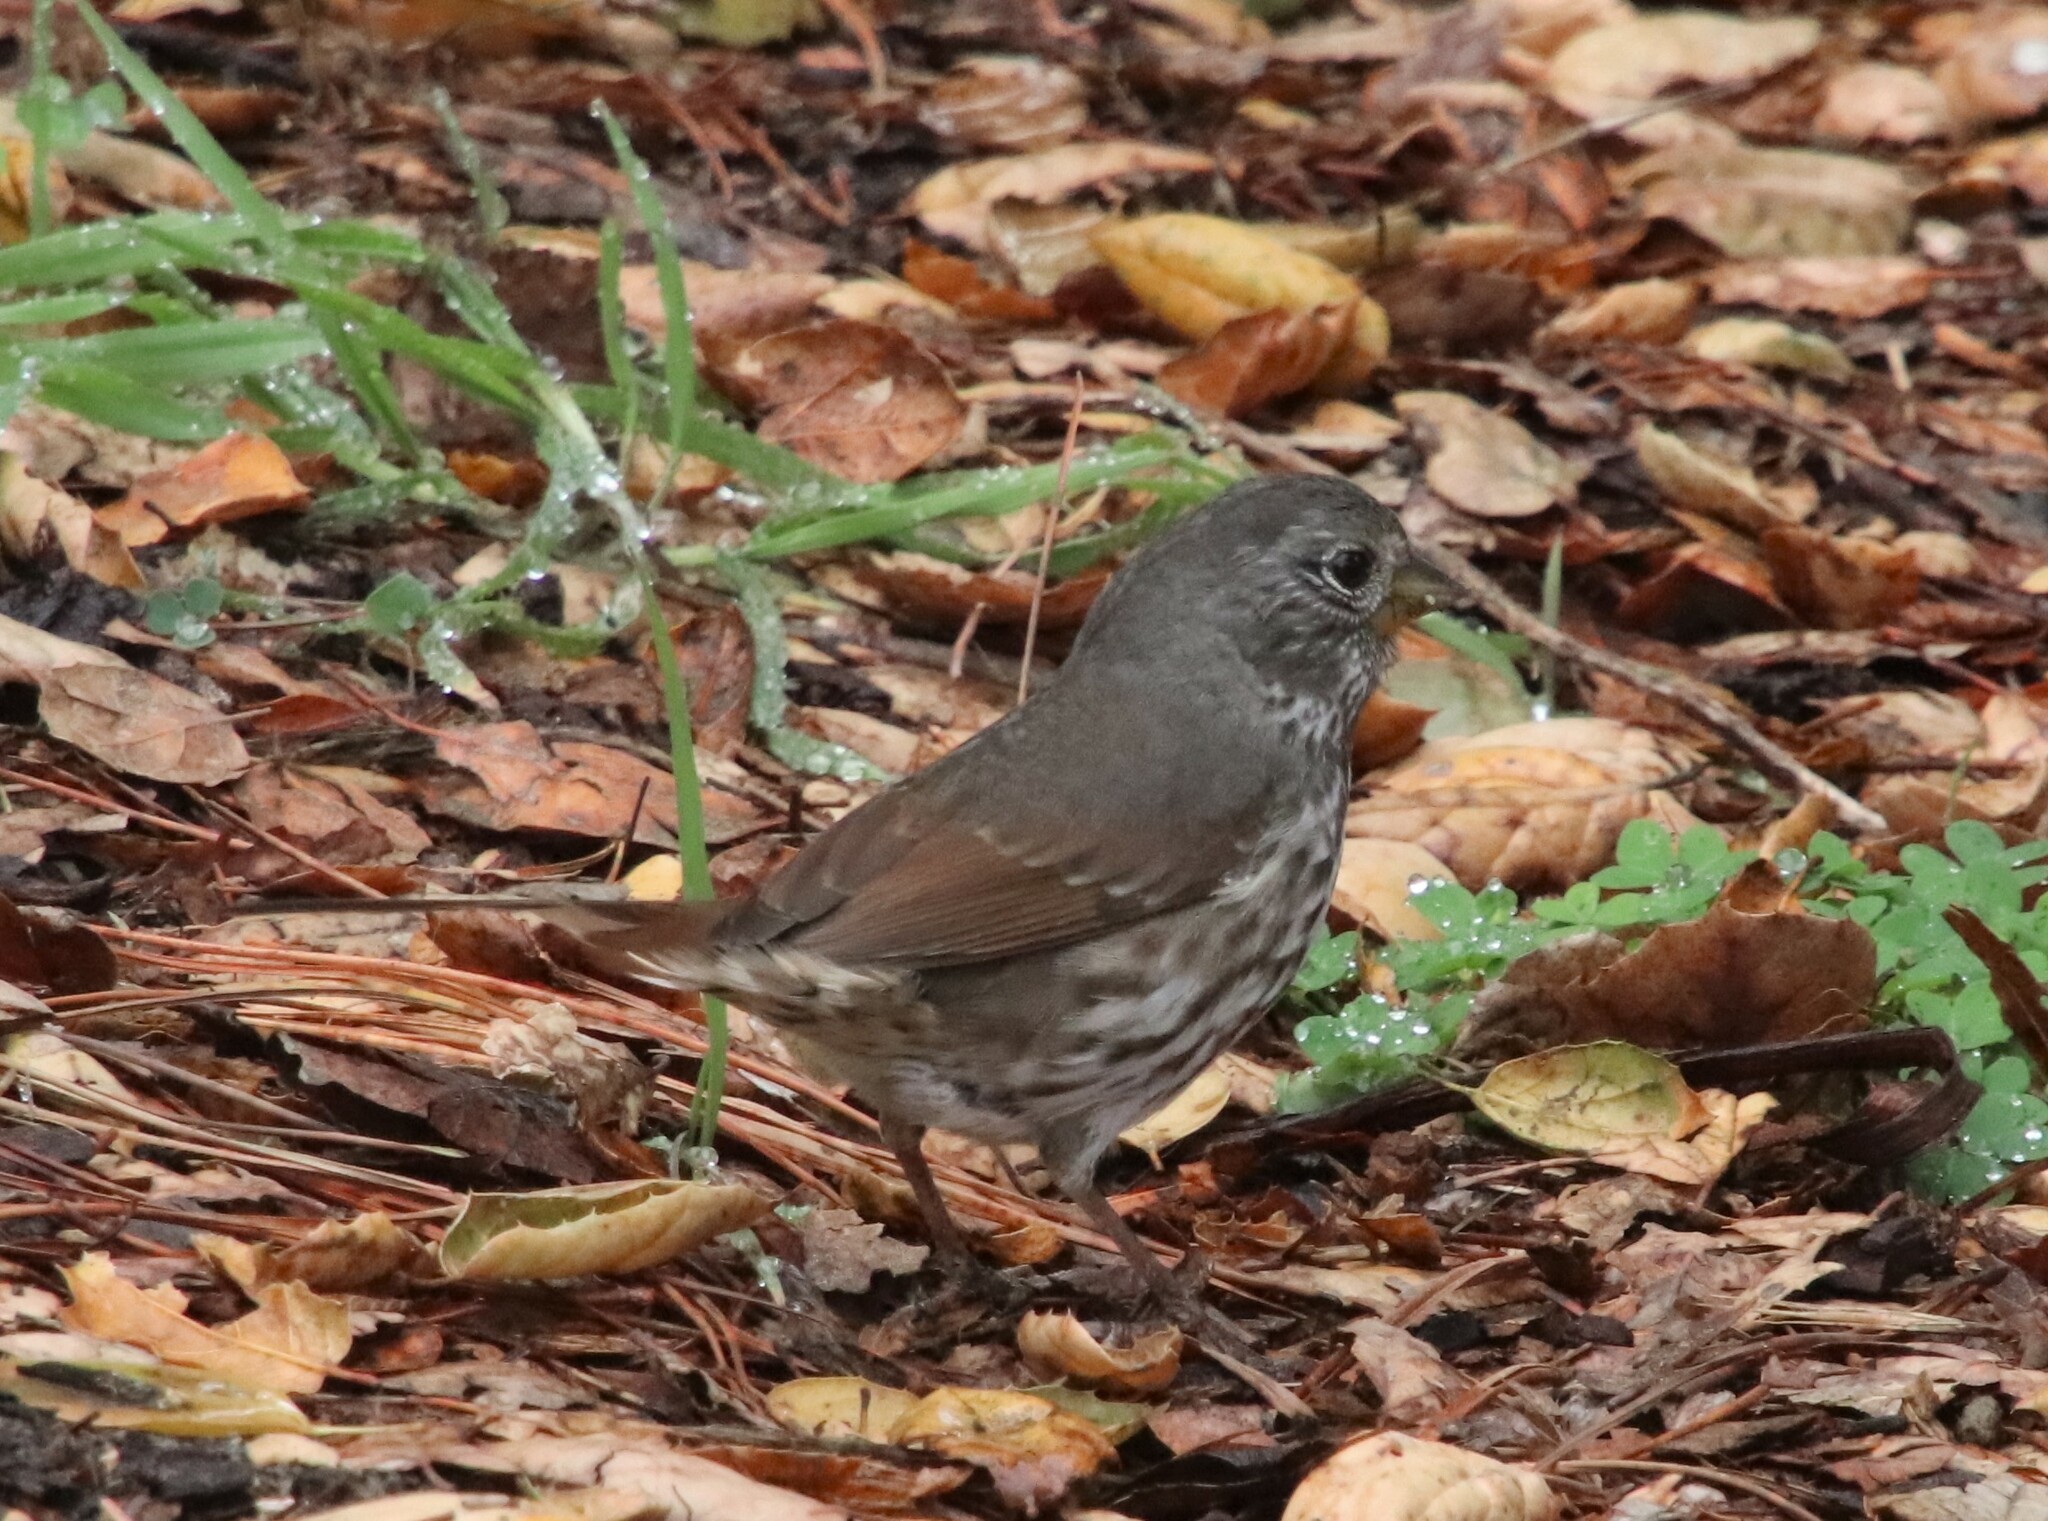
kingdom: Animalia
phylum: Chordata
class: Aves
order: Passeriformes
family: Passerellidae
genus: Passerella
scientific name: Passerella iliaca
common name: Fox sparrow
